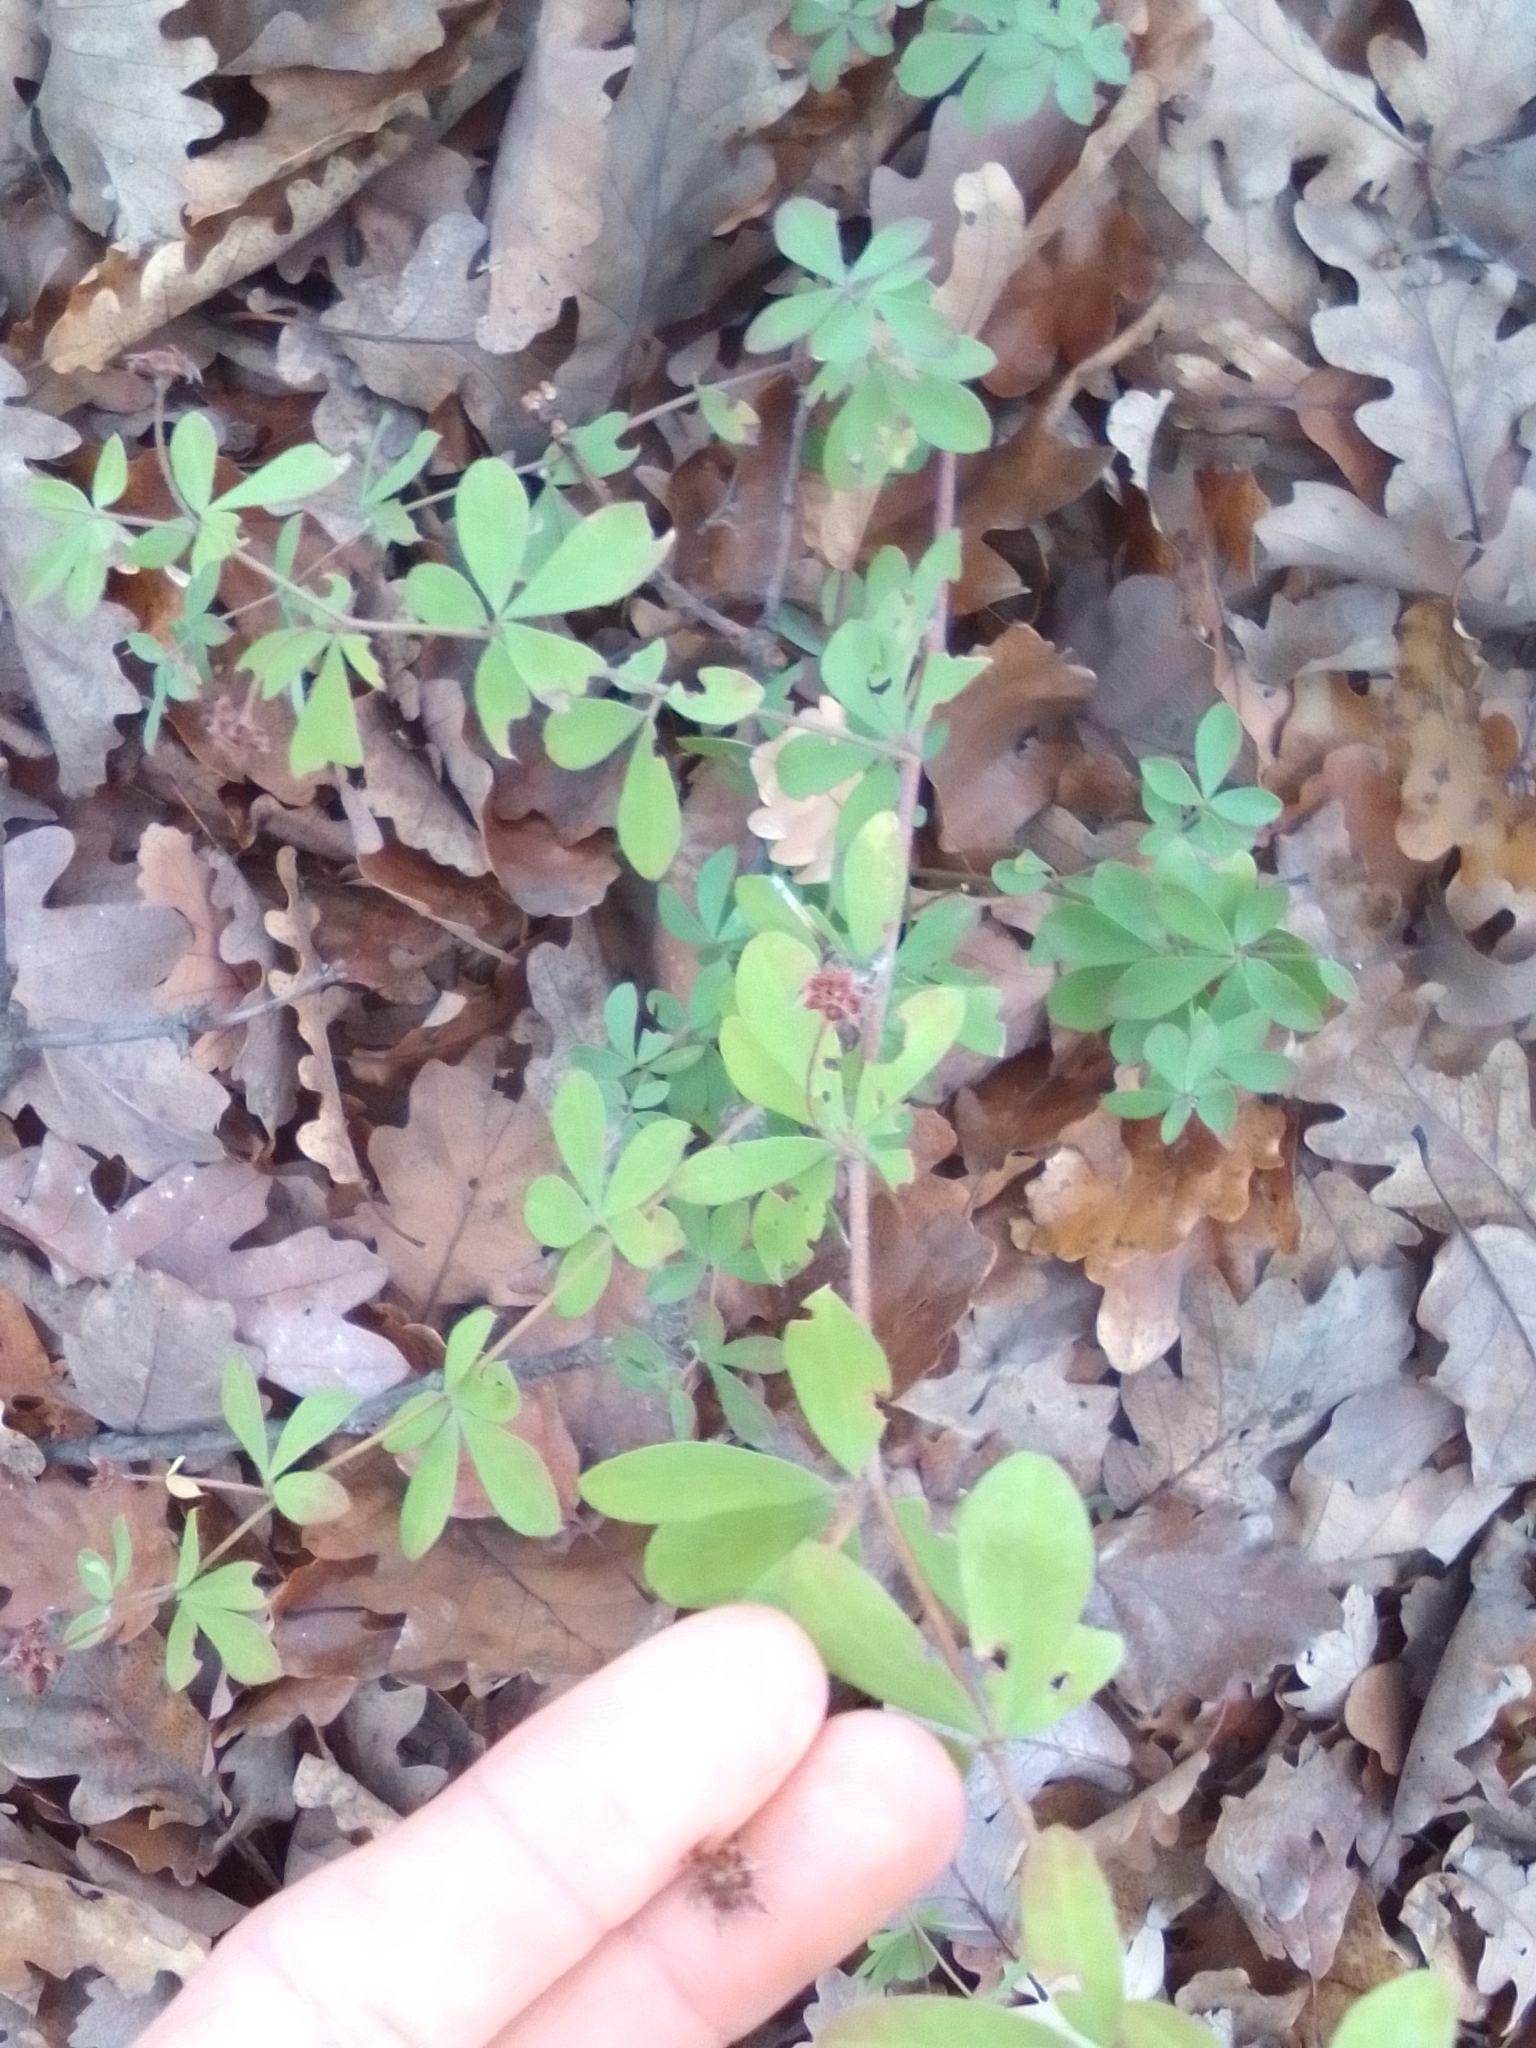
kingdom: Plantae
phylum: Tracheophyta
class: Magnoliopsida
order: Fabales
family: Fabaceae
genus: Lotus
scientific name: Lotus herbaceus
